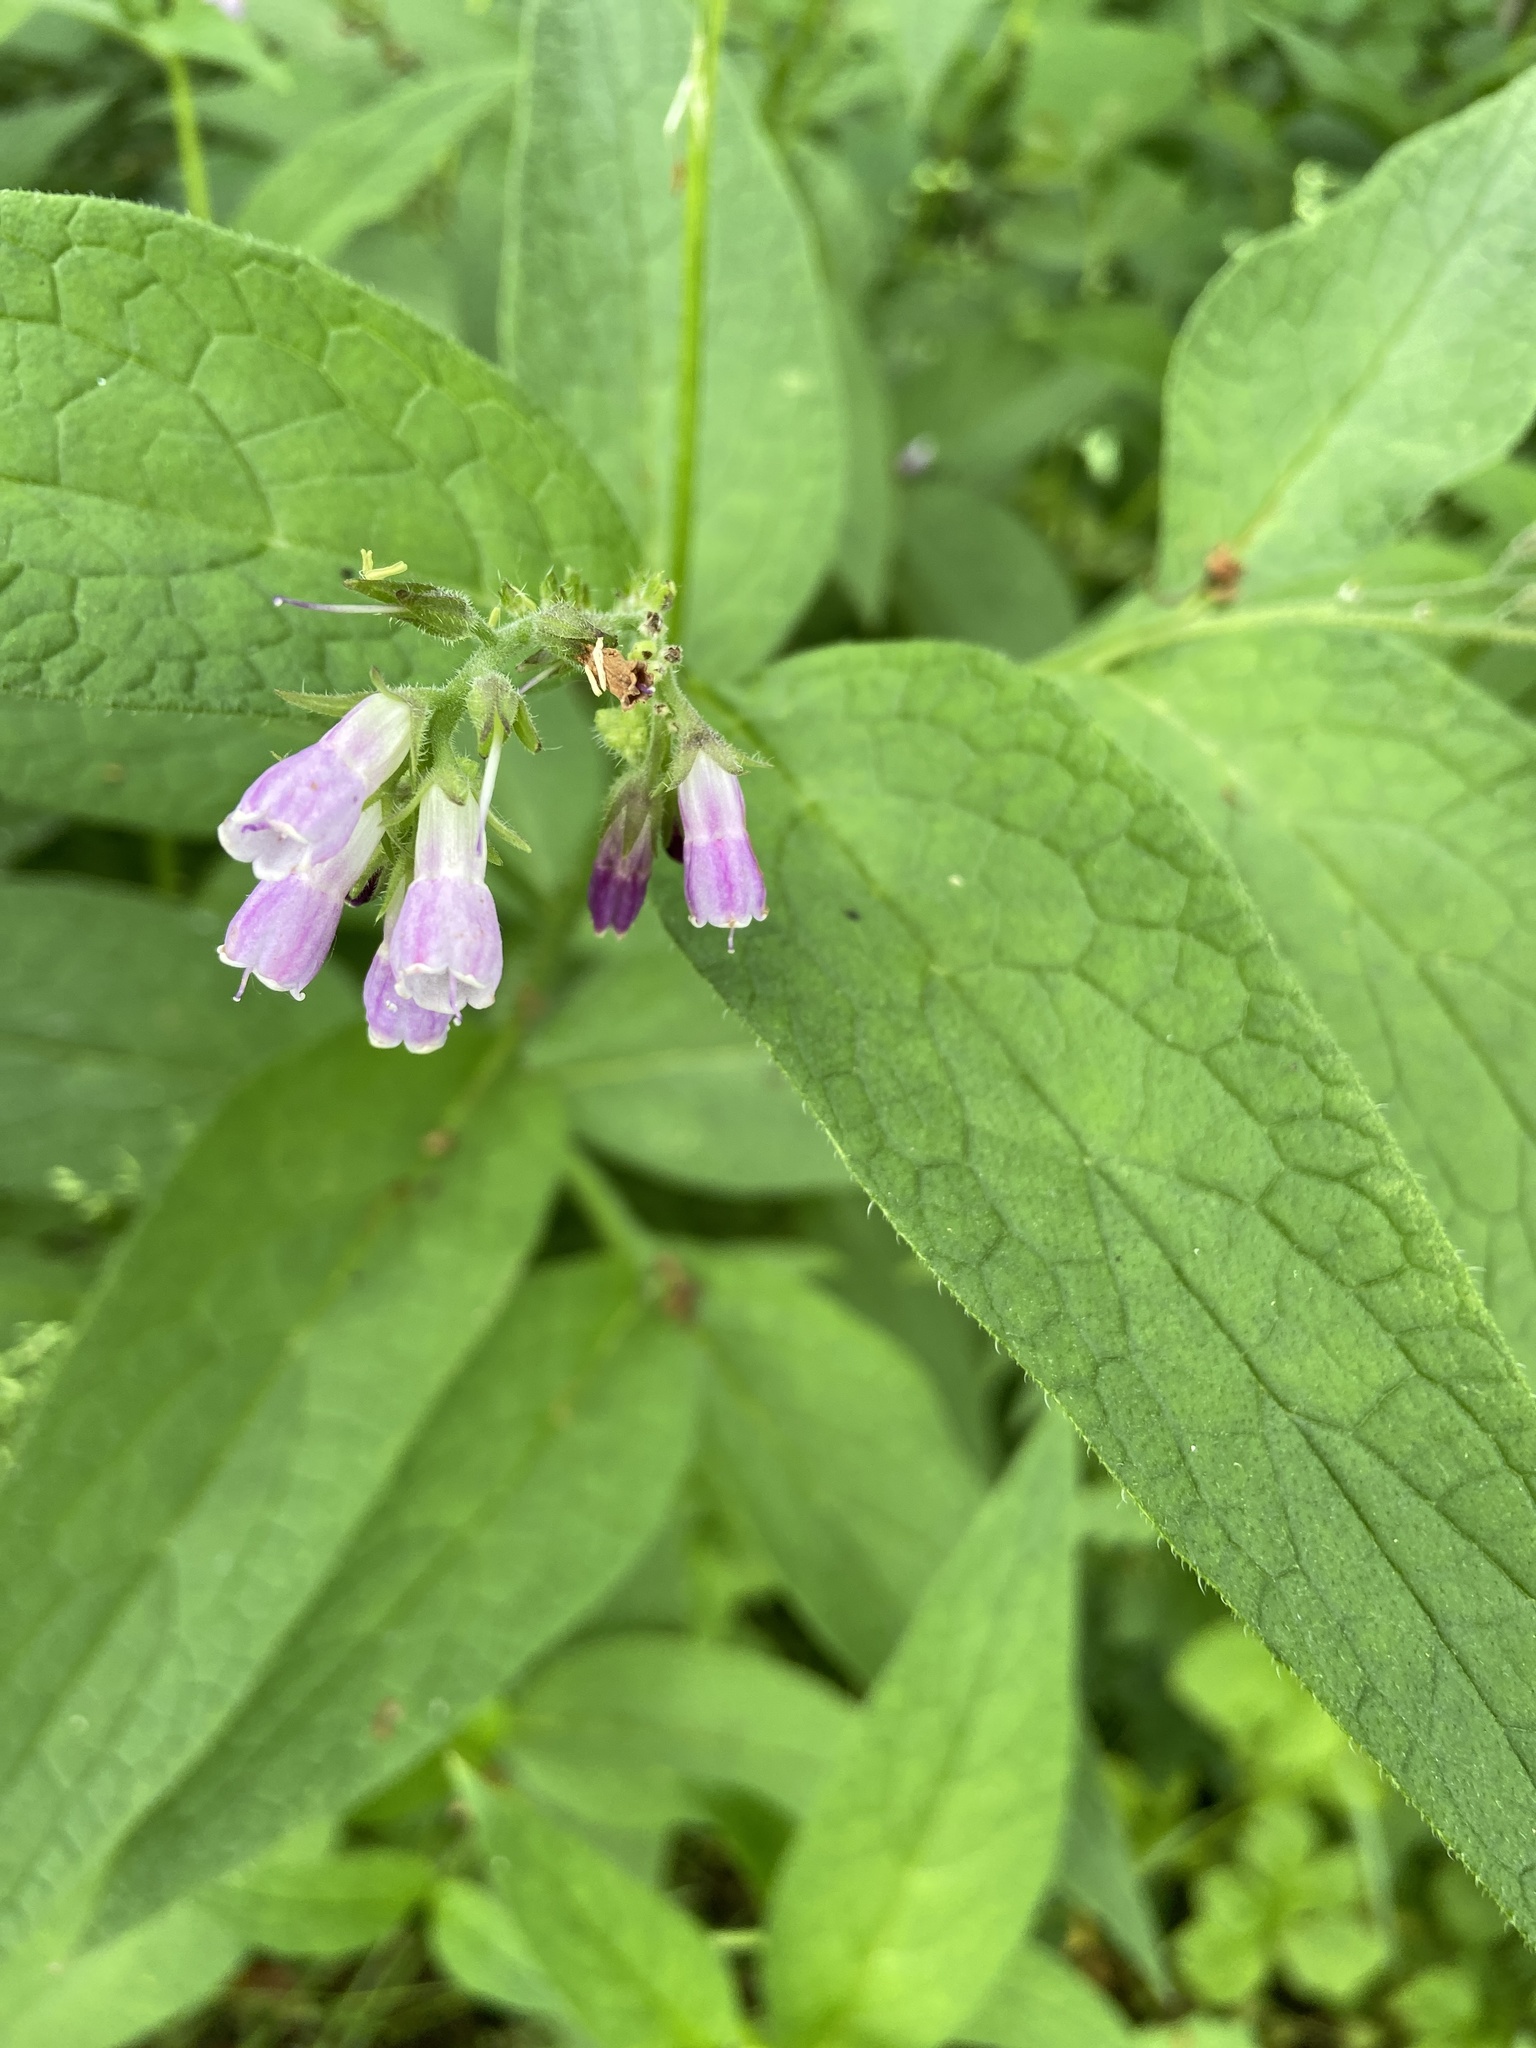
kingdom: Plantae
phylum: Tracheophyta
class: Magnoliopsida
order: Boraginales
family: Boraginaceae
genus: Symphytum
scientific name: Symphytum officinale
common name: Common comfrey
